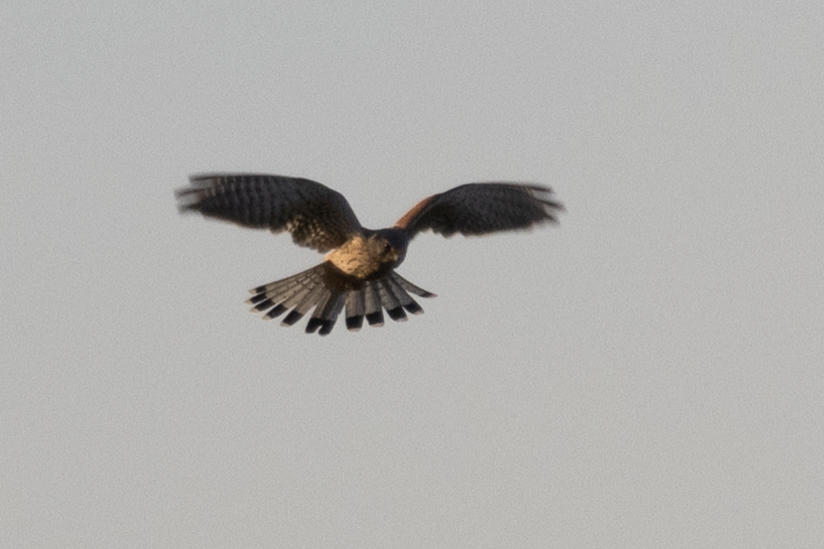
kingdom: Animalia
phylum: Chordata
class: Aves
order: Falconiformes
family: Falconidae
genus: Falco
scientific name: Falco tinnunculus
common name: Common kestrel
